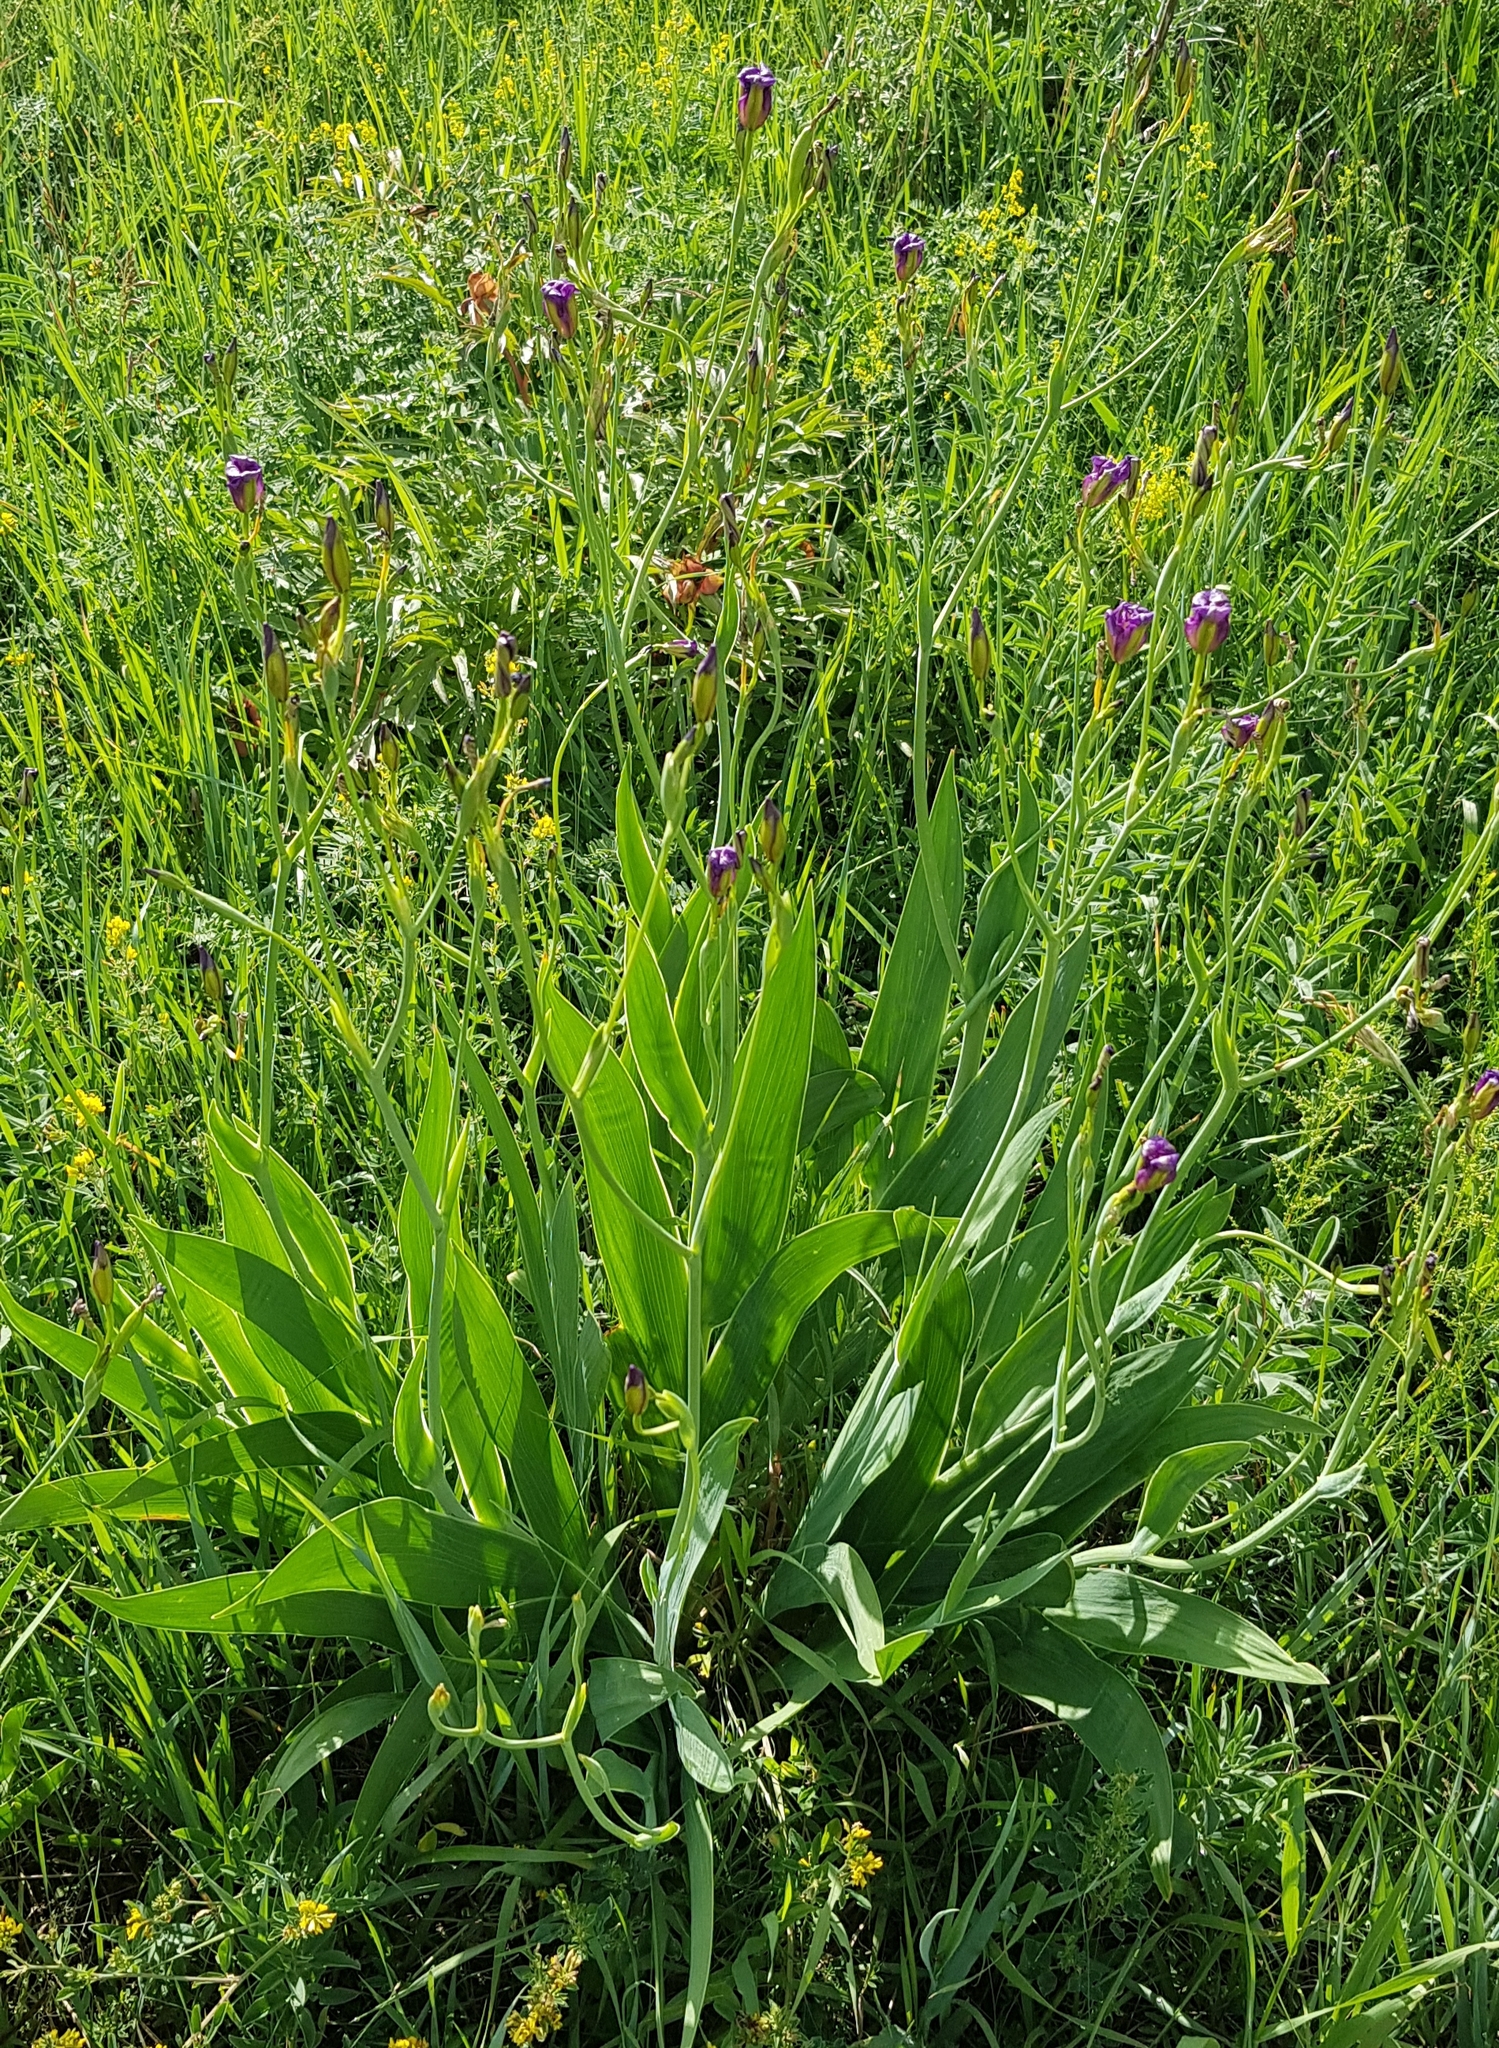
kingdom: Plantae
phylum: Tracheophyta
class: Liliopsida
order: Asparagales
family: Iridaceae
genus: Iris
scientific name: Iris dichotoma
